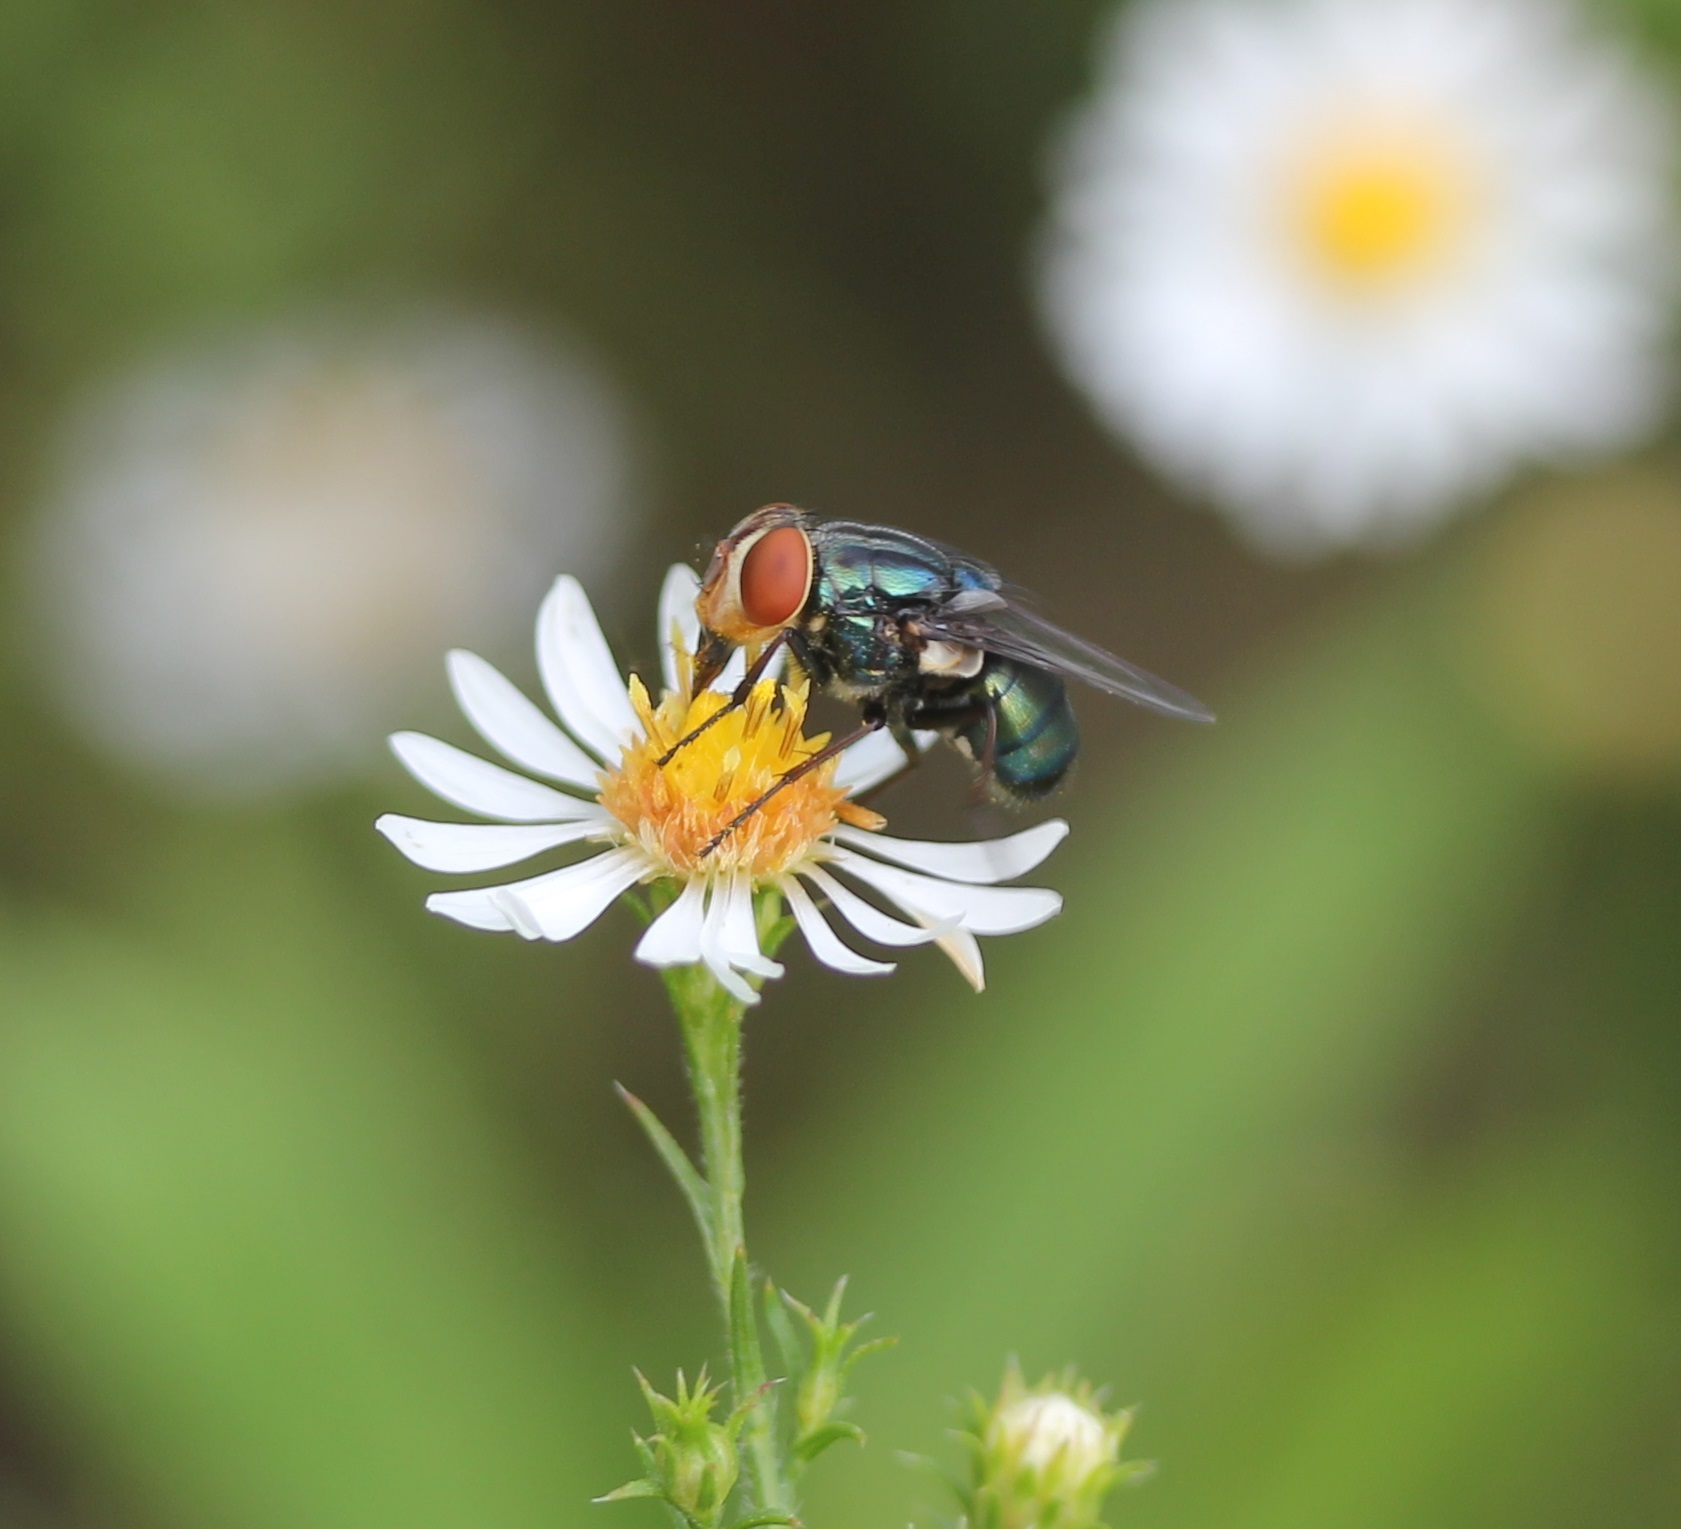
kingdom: Animalia
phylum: Arthropoda
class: Insecta
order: Diptera
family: Calliphoridae
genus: Cochliomyia
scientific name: Cochliomyia macellaria
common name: Secondary screwworm
